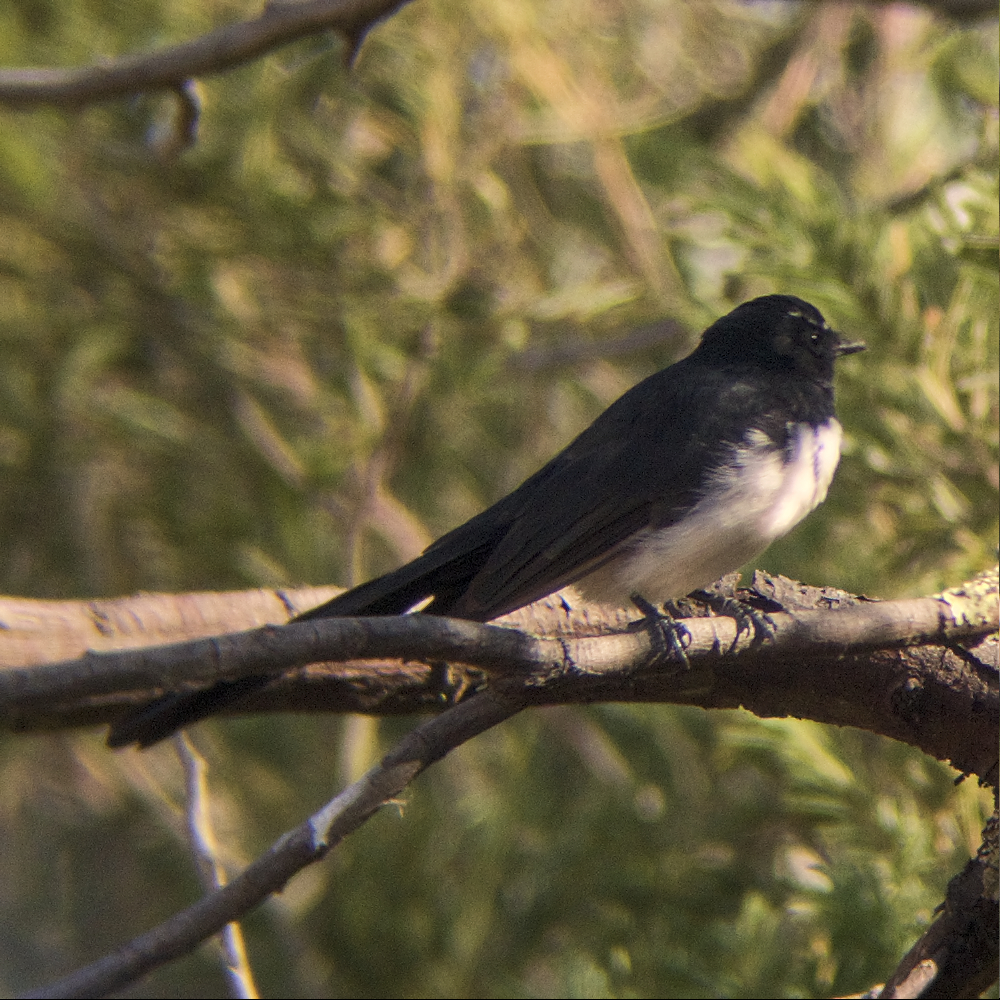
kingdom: Animalia
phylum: Chordata
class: Aves
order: Passeriformes
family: Rhipiduridae
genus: Rhipidura
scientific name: Rhipidura leucophrys
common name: Willie wagtail
